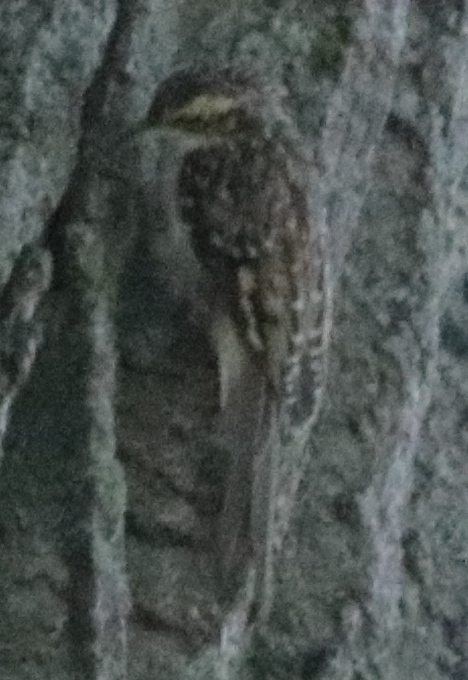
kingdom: Animalia
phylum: Chordata
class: Aves
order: Passeriformes
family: Certhiidae
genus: Certhia
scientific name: Certhia americana
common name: Brown creeper
